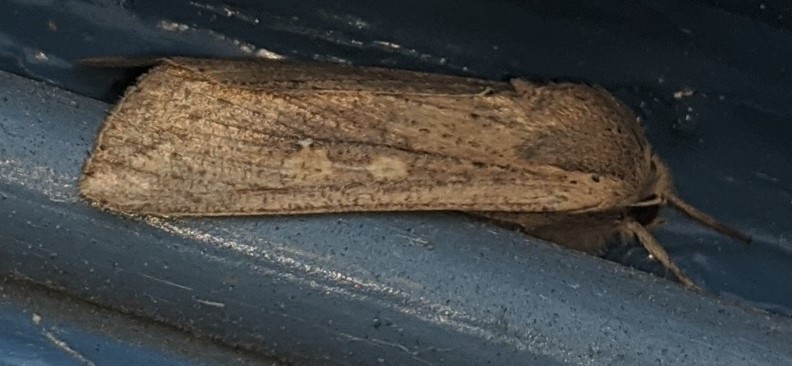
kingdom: Animalia
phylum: Arthropoda
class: Insecta
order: Lepidoptera
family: Noctuidae
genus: Mythimna
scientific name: Mythimna unipuncta
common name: White-speck
